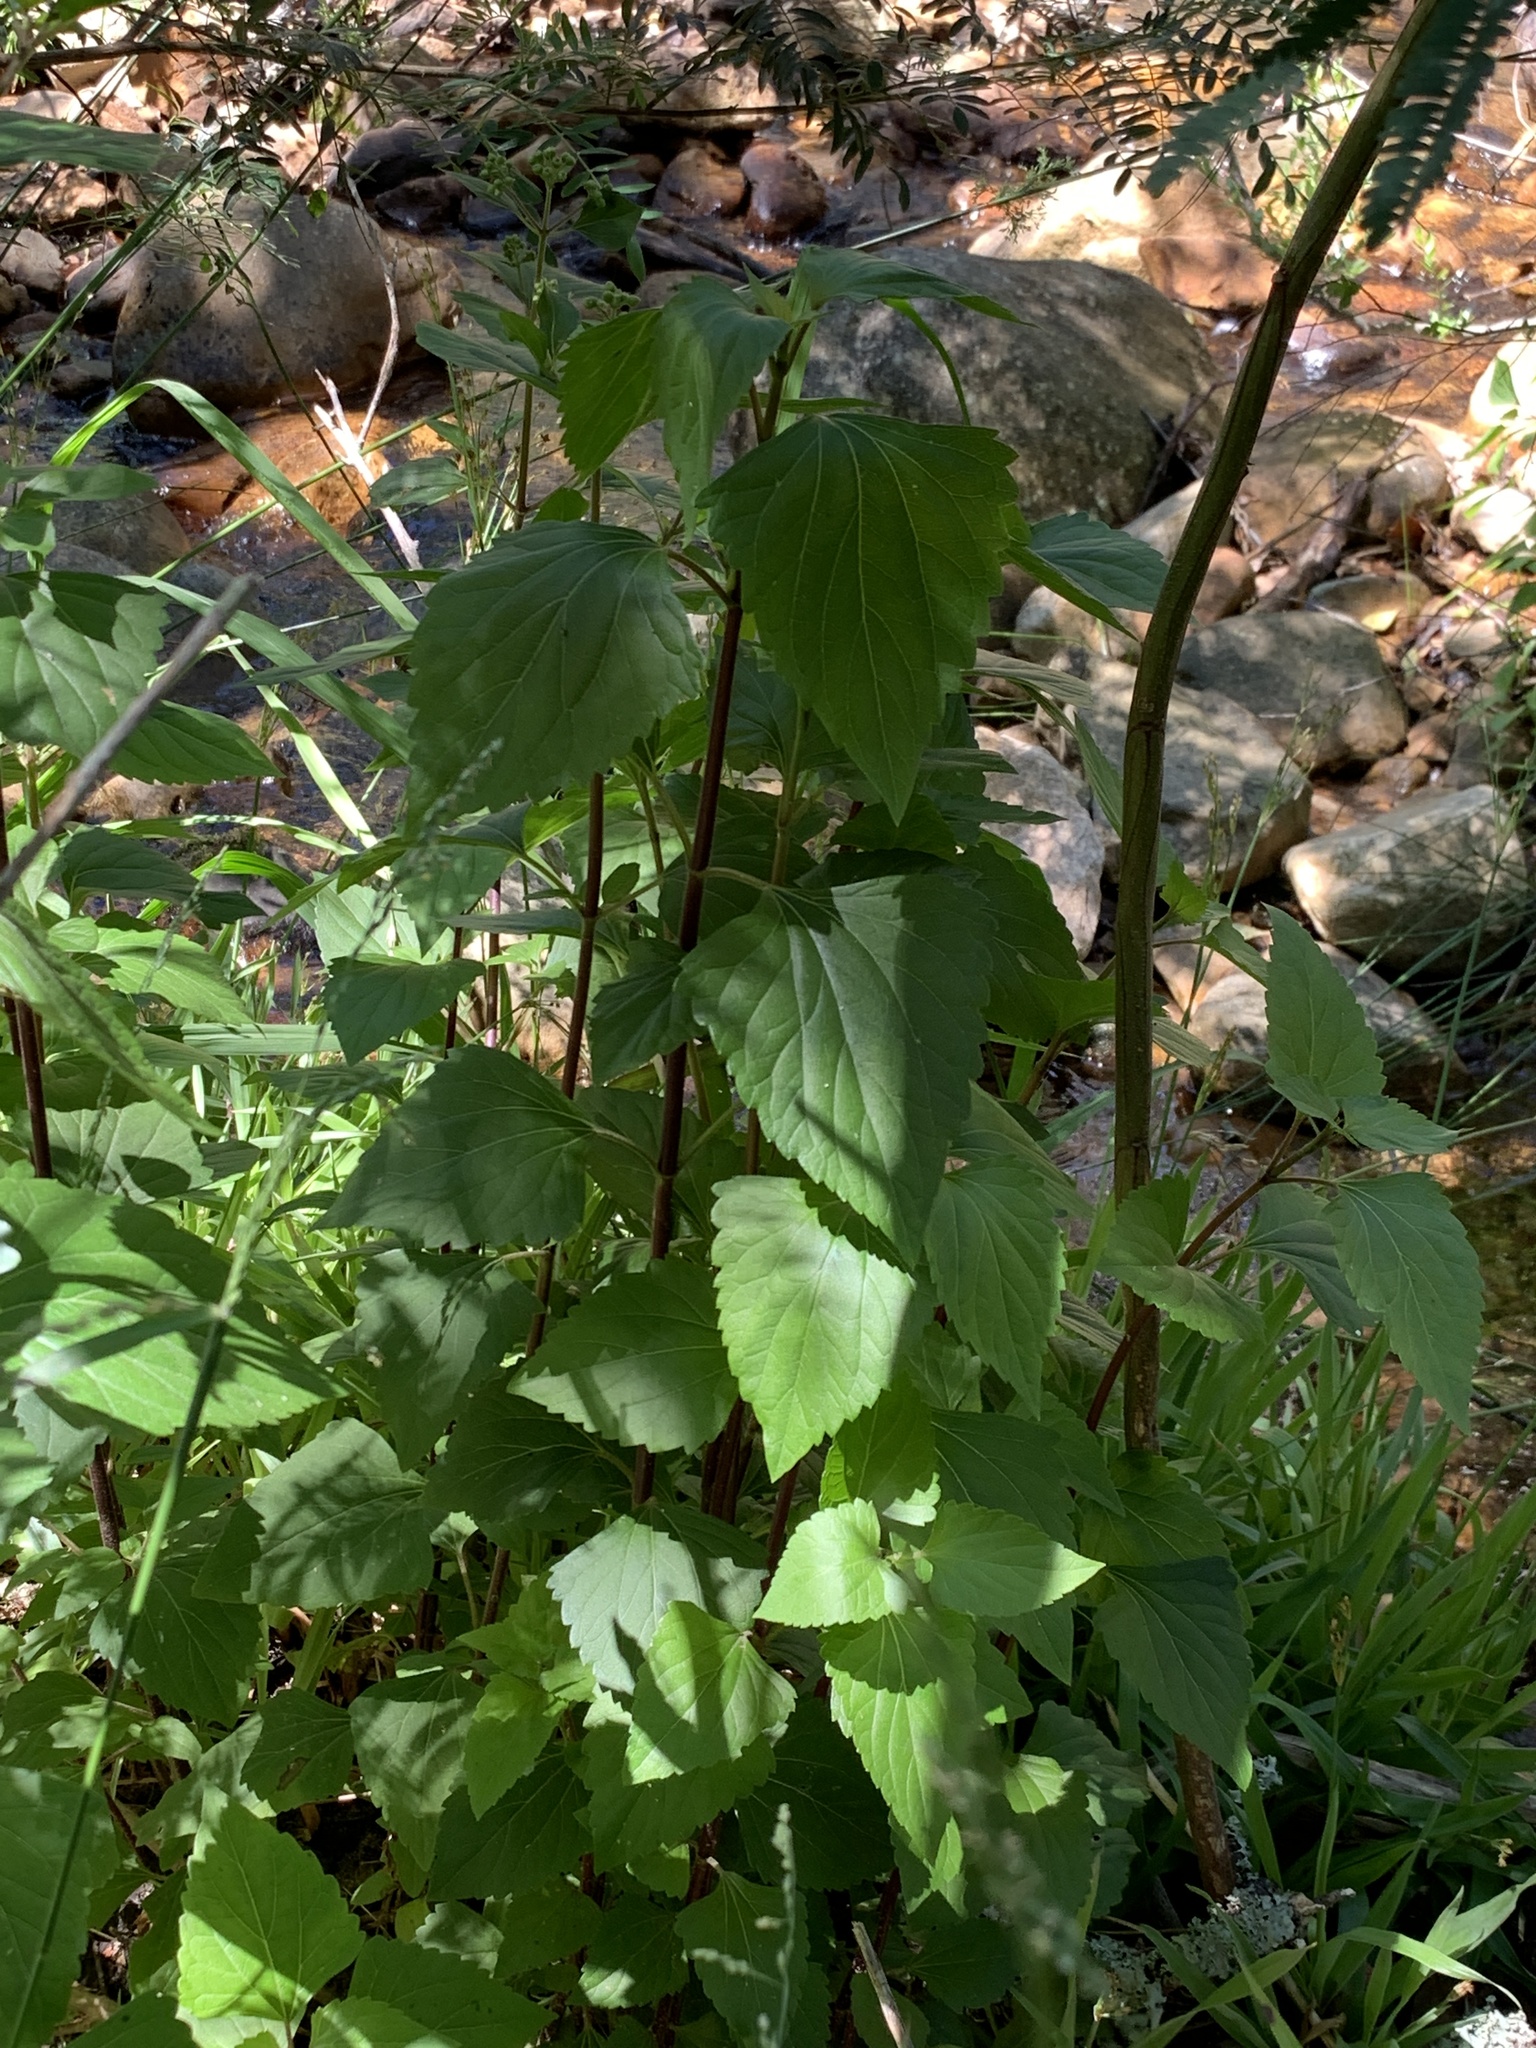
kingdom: Plantae
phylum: Tracheophyta
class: Magnoliopsida
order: Asterales
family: Asteraceae
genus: Ageratina
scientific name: Ageratina adenophora
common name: Sticky snakeroot
